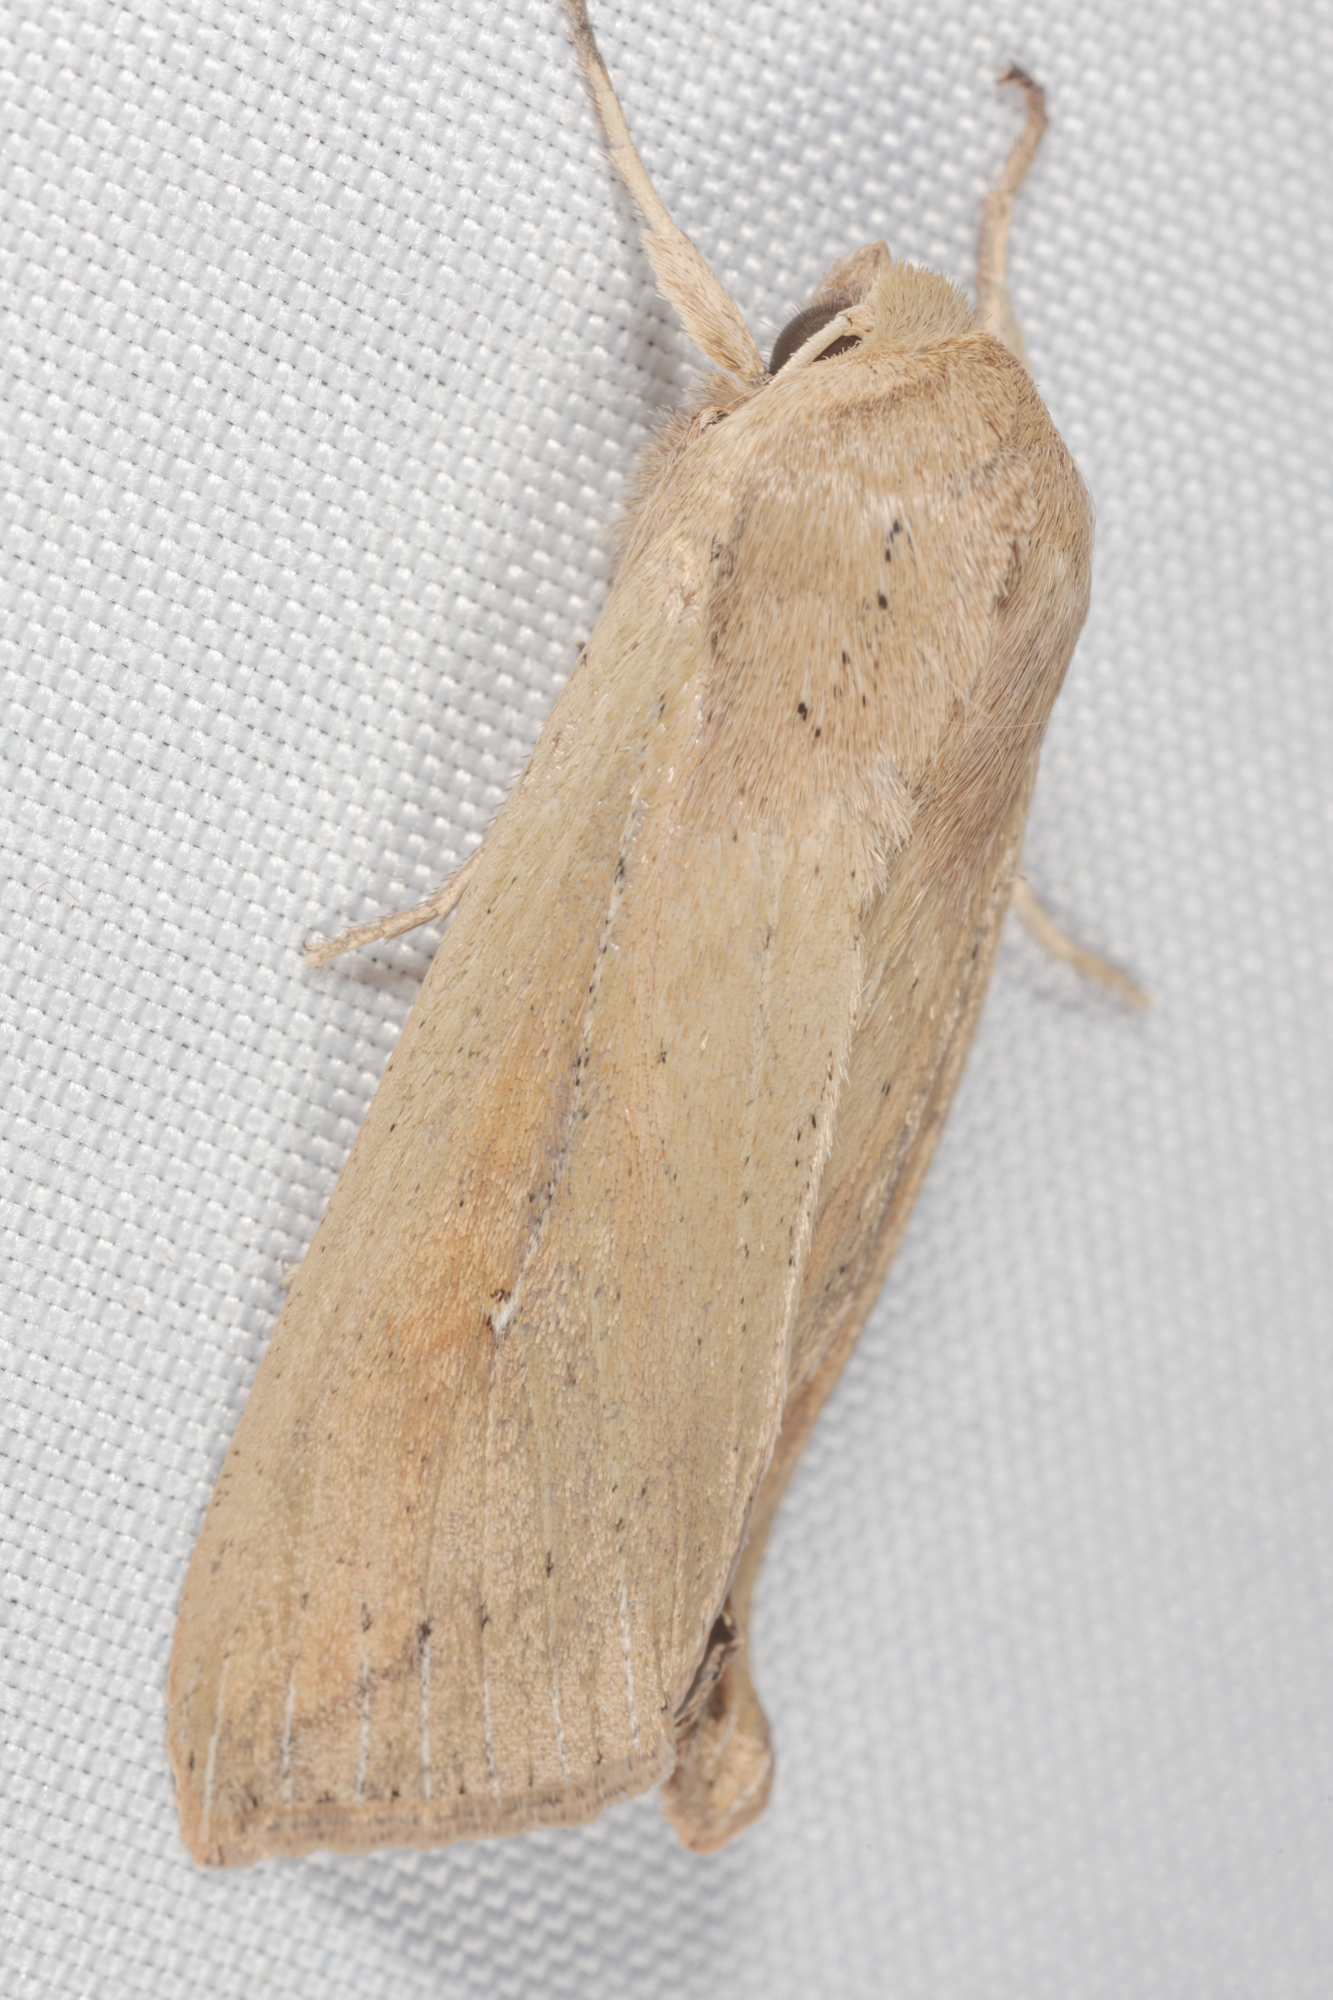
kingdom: Animalia
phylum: Arthropoda
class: Insecta
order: Lepidoptera
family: Noctuidae
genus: Mythimna
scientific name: Mythimna unipuncta
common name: White-speck
